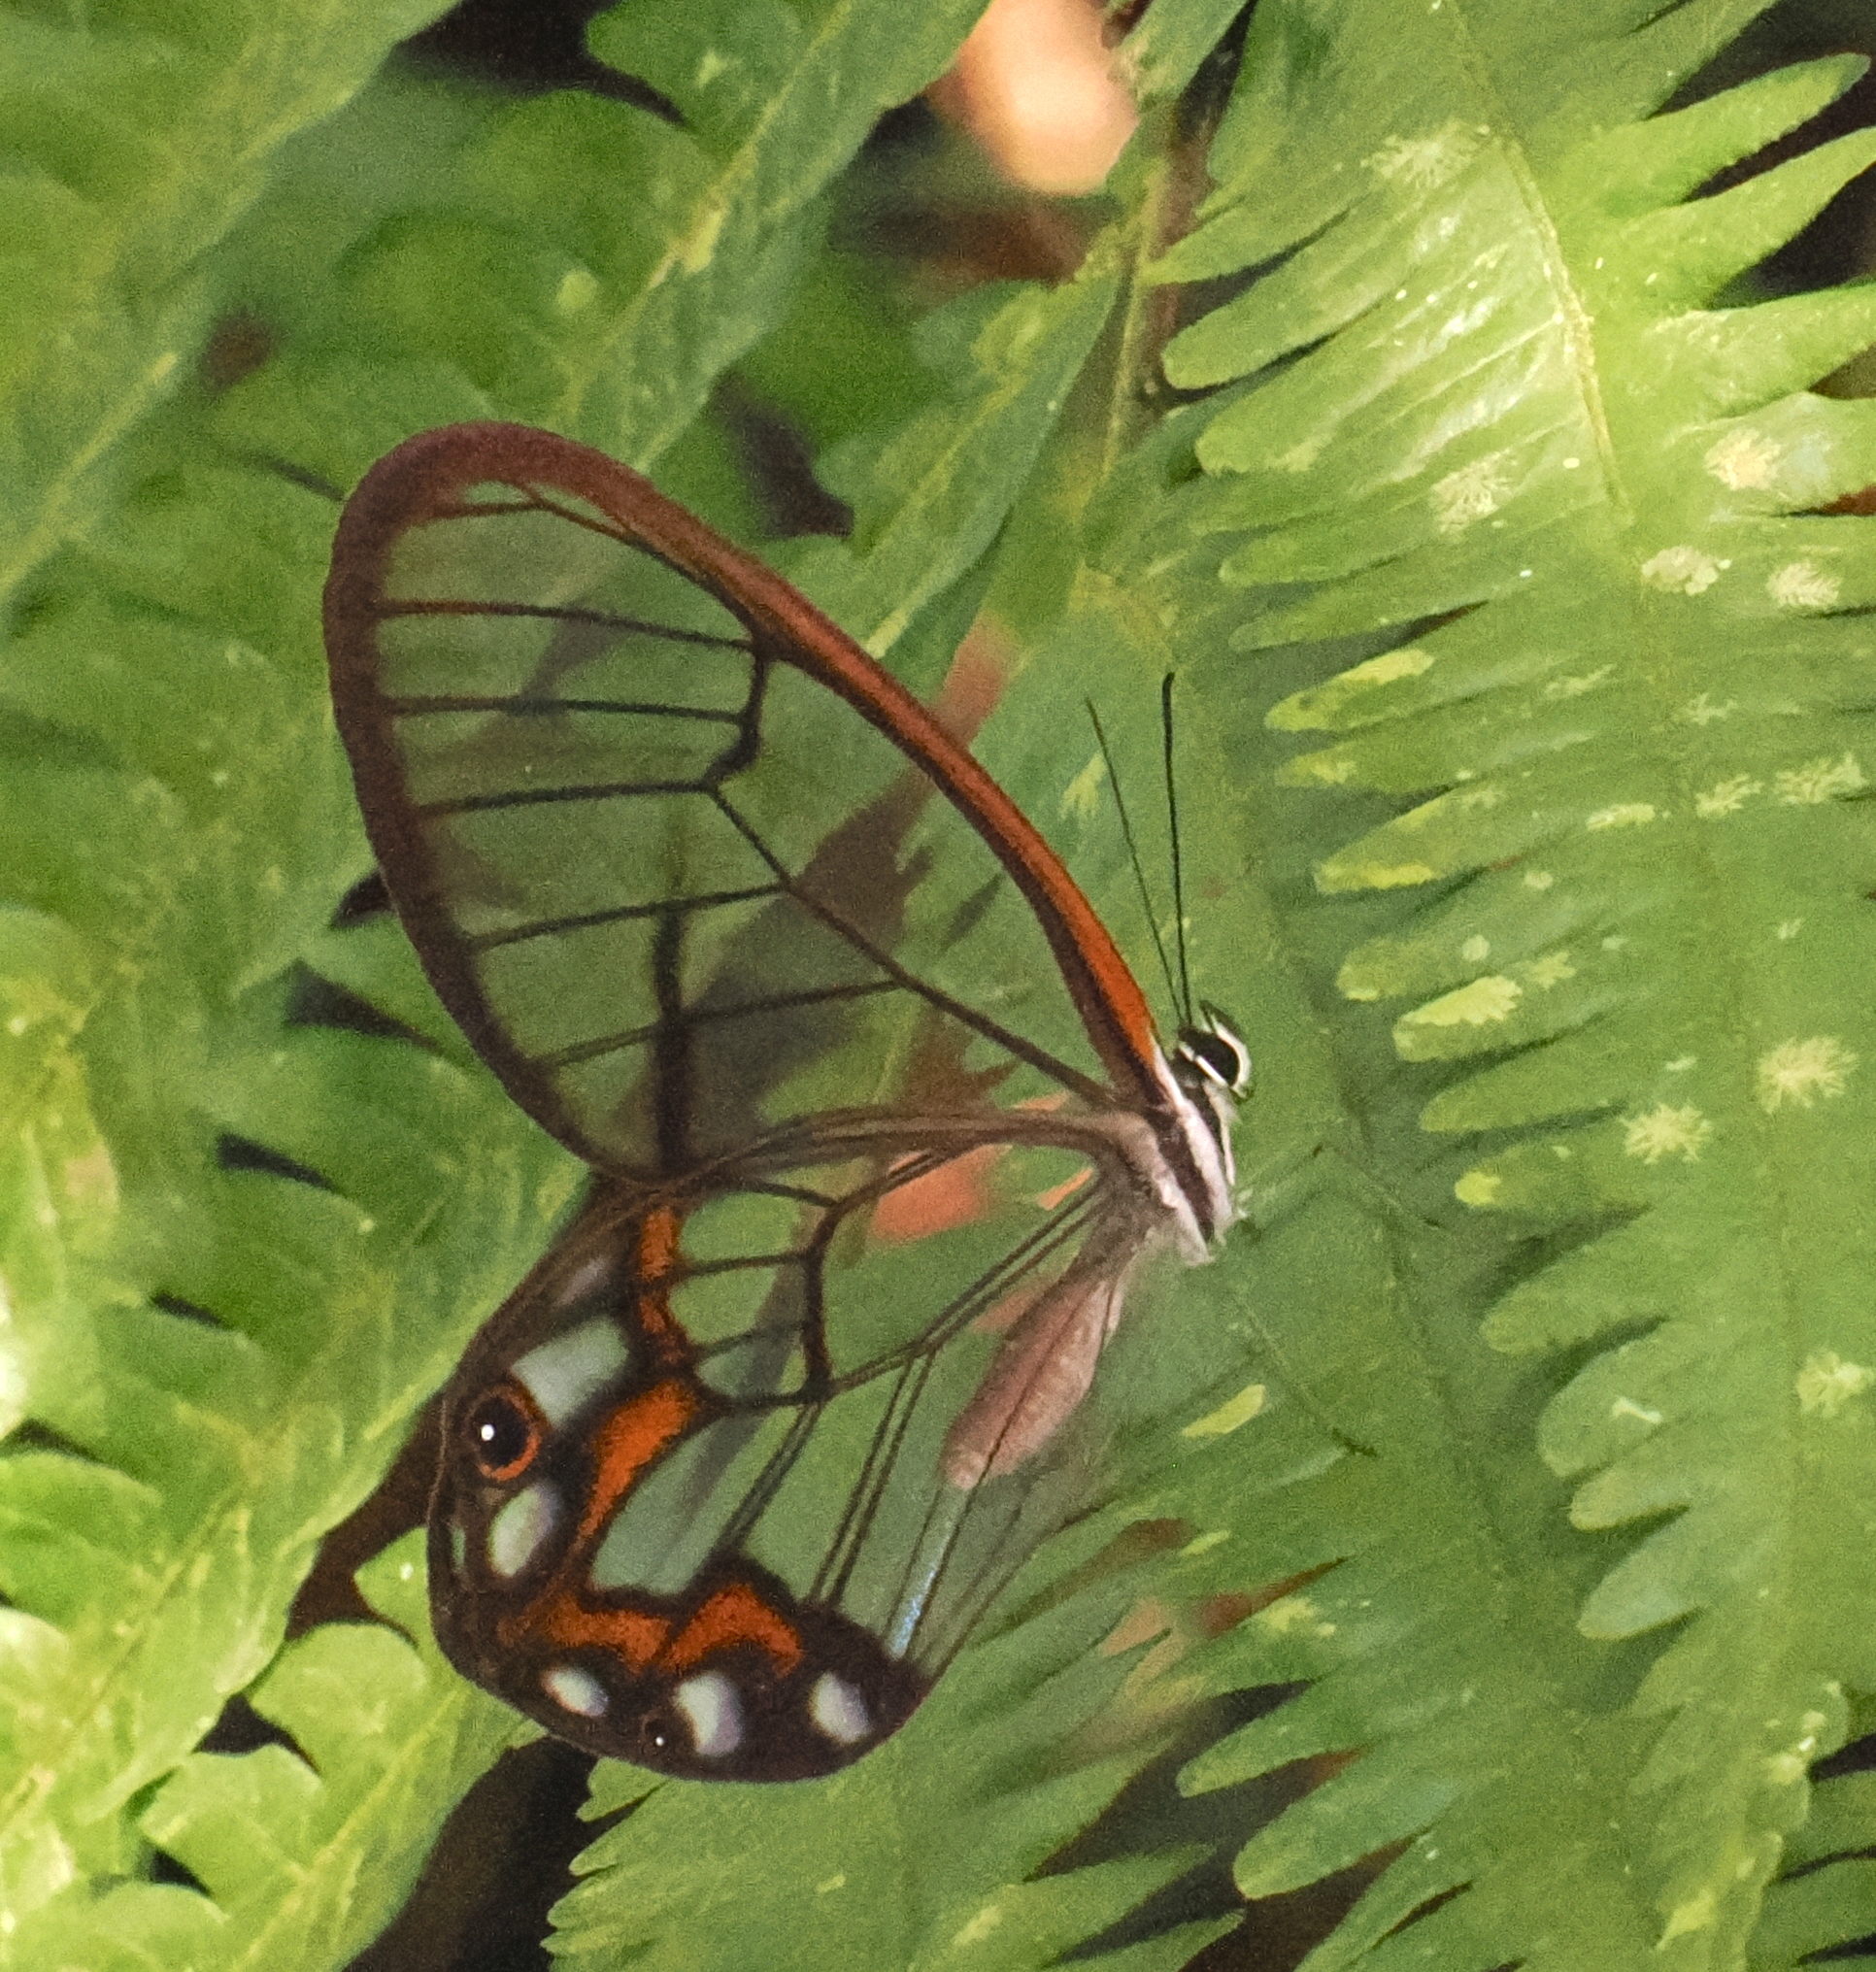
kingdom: Animalia
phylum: Arthropoda
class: Insecta
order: Lepidoptera
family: Nymphalidae
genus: Pseudohaetera
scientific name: Pseudohaetera hypaesia
